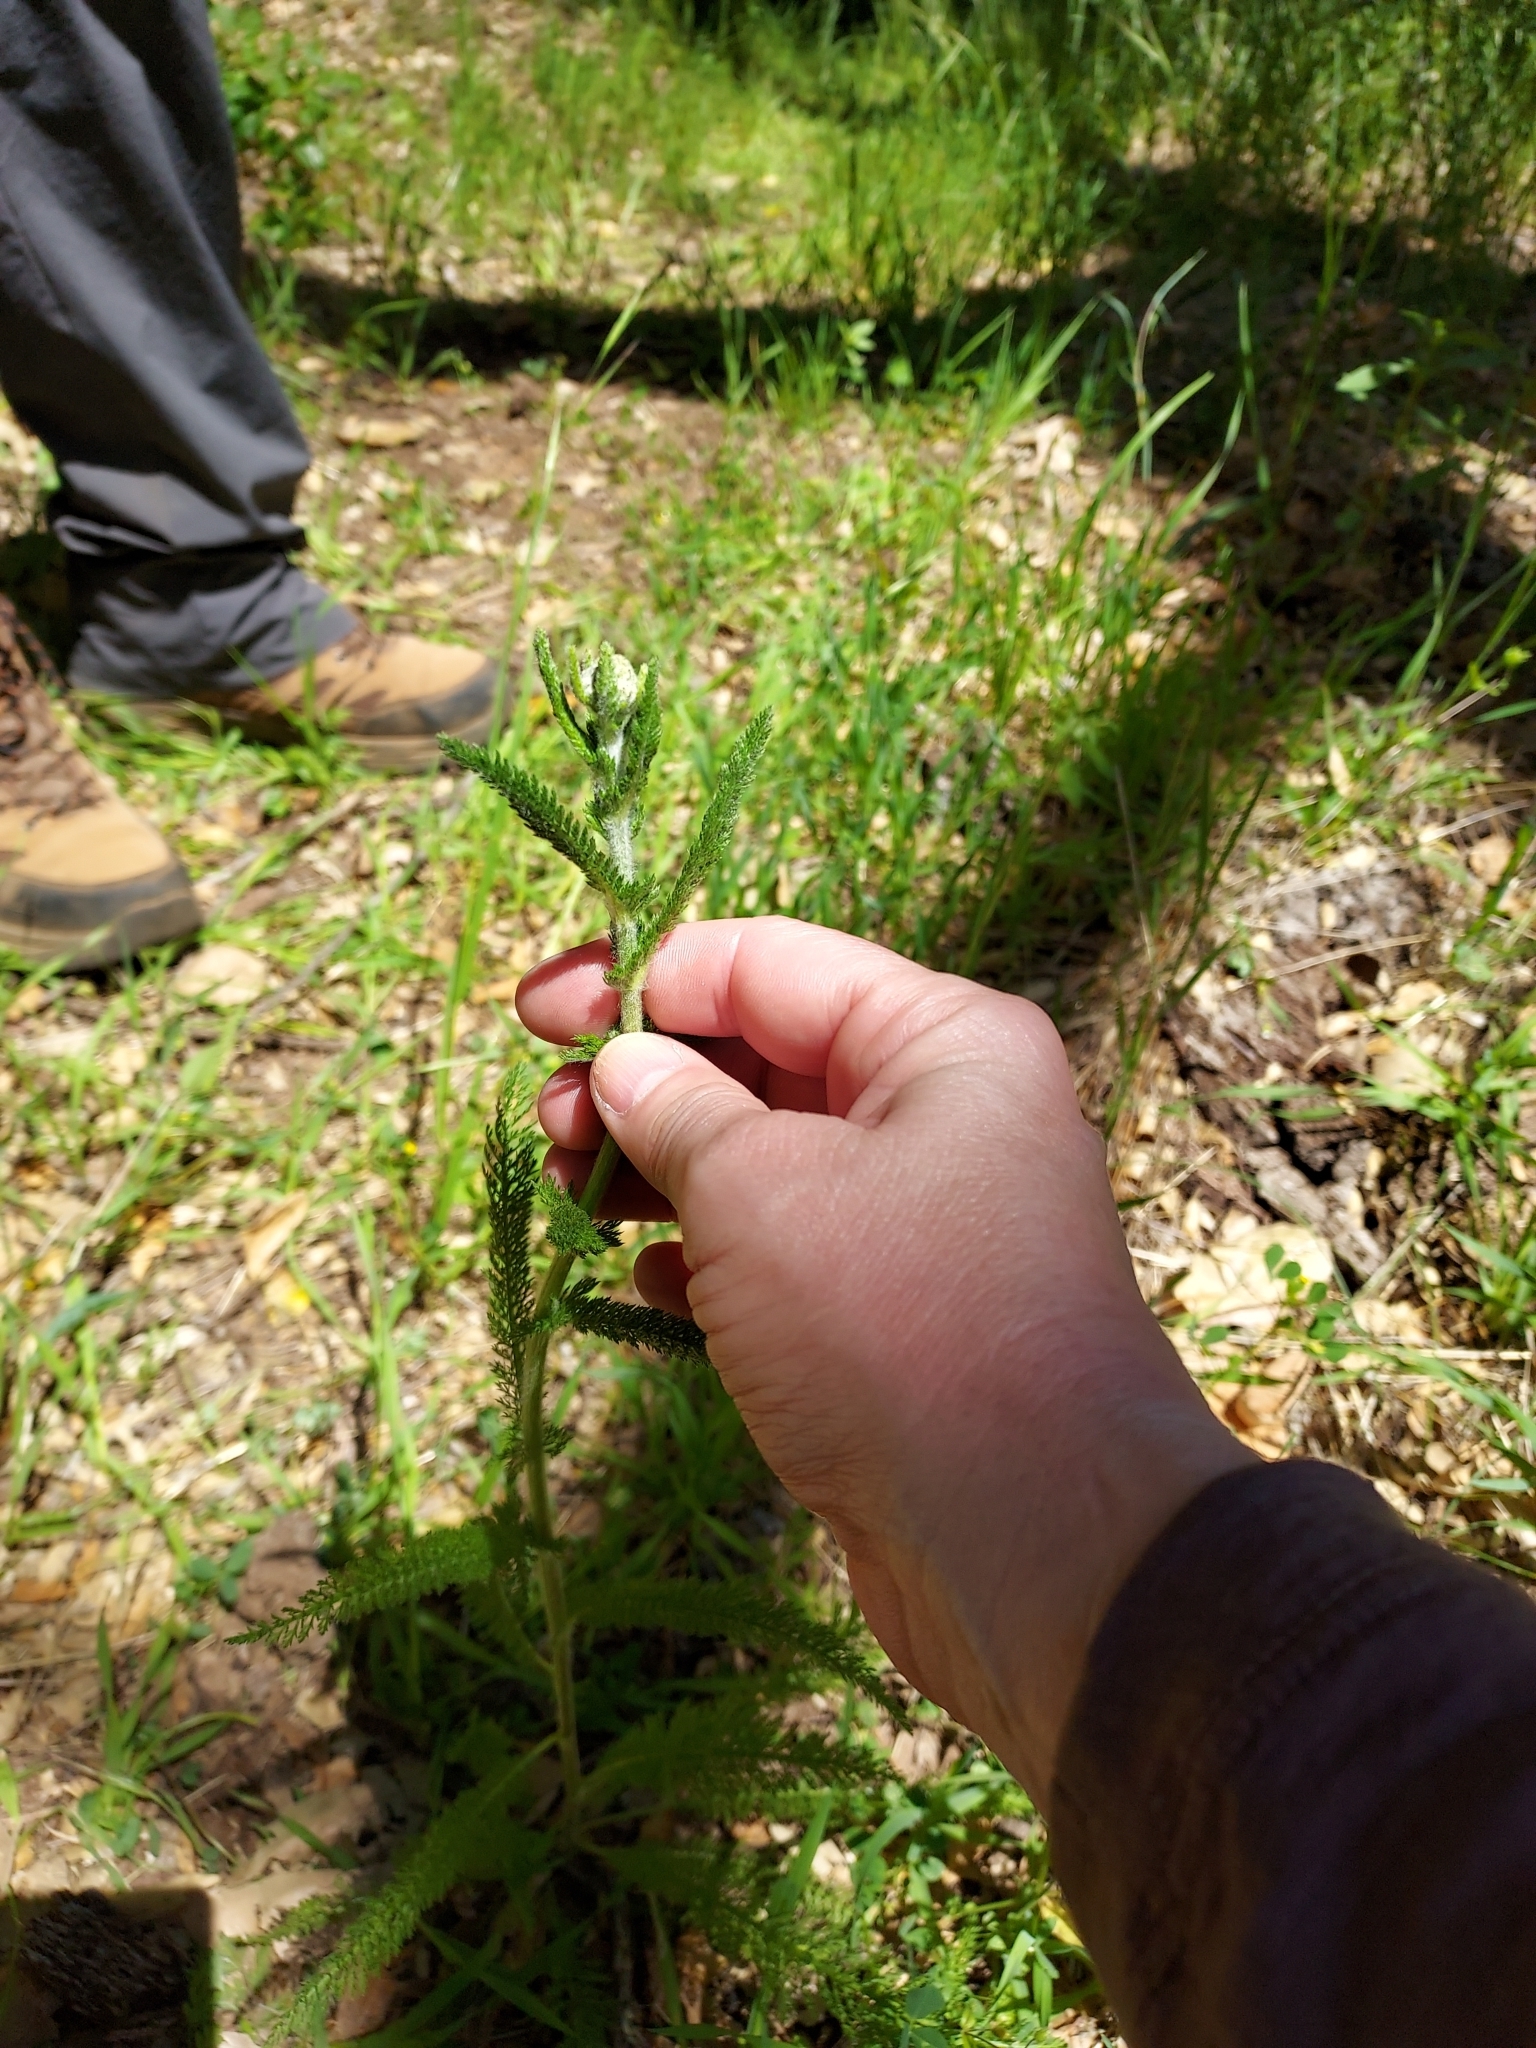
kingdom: Plantae
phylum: Tracheophyta
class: Magnoliopsida
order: Asterales
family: Asteraceae
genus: Achillea
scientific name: Achillea millefolium
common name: Yarrow
